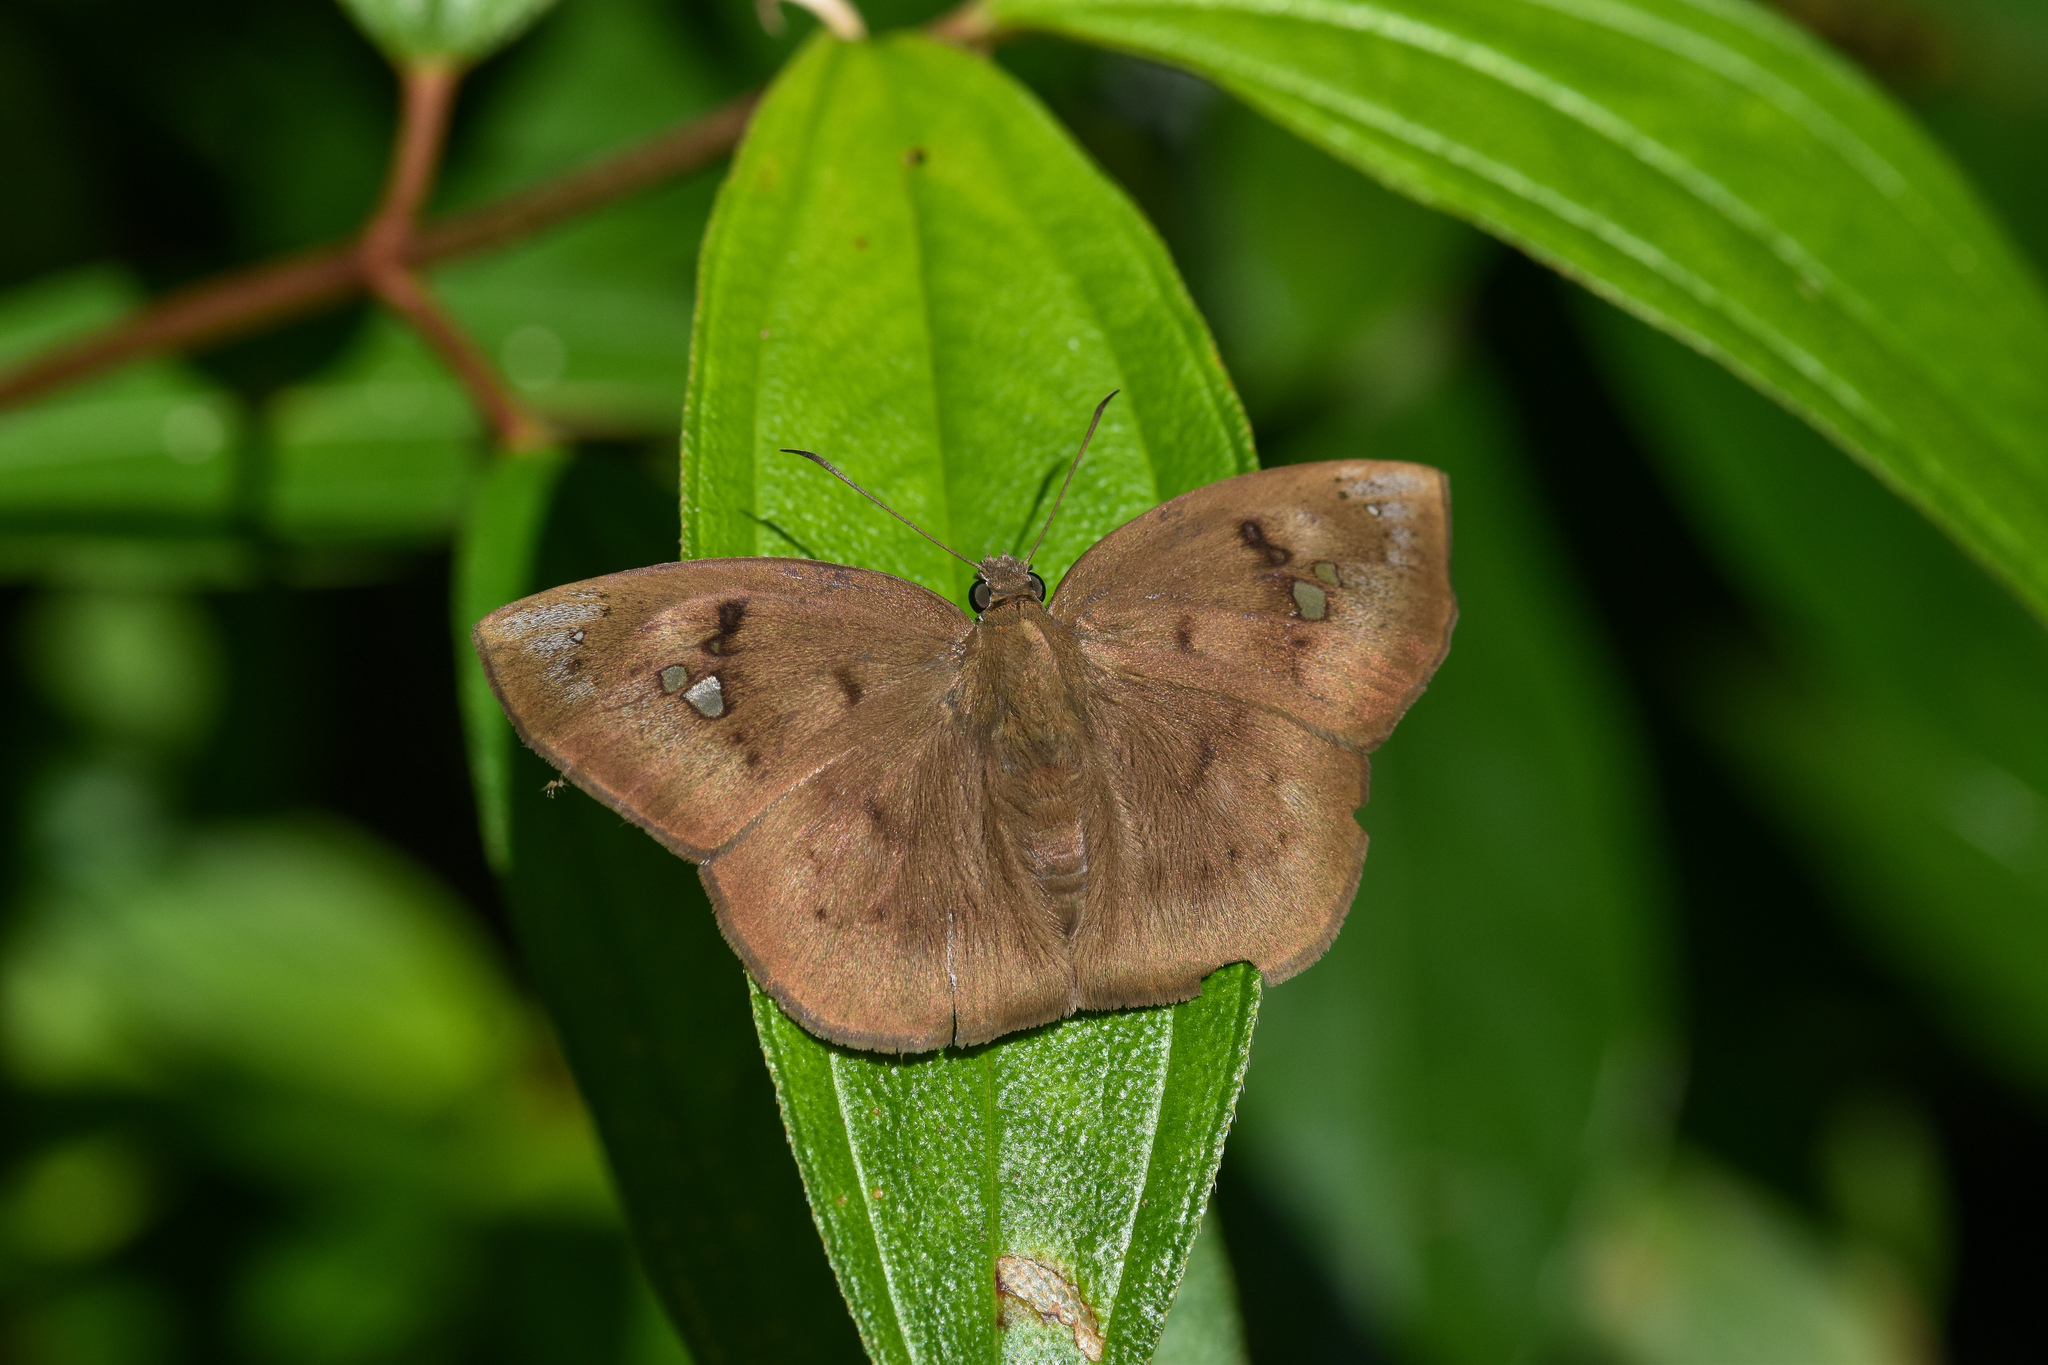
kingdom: Animalia
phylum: Arthropoda
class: Insecta
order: Lepidoptera
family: Hesperiidae
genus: Tagiades
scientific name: Tagiades japetus
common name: Pied flat
